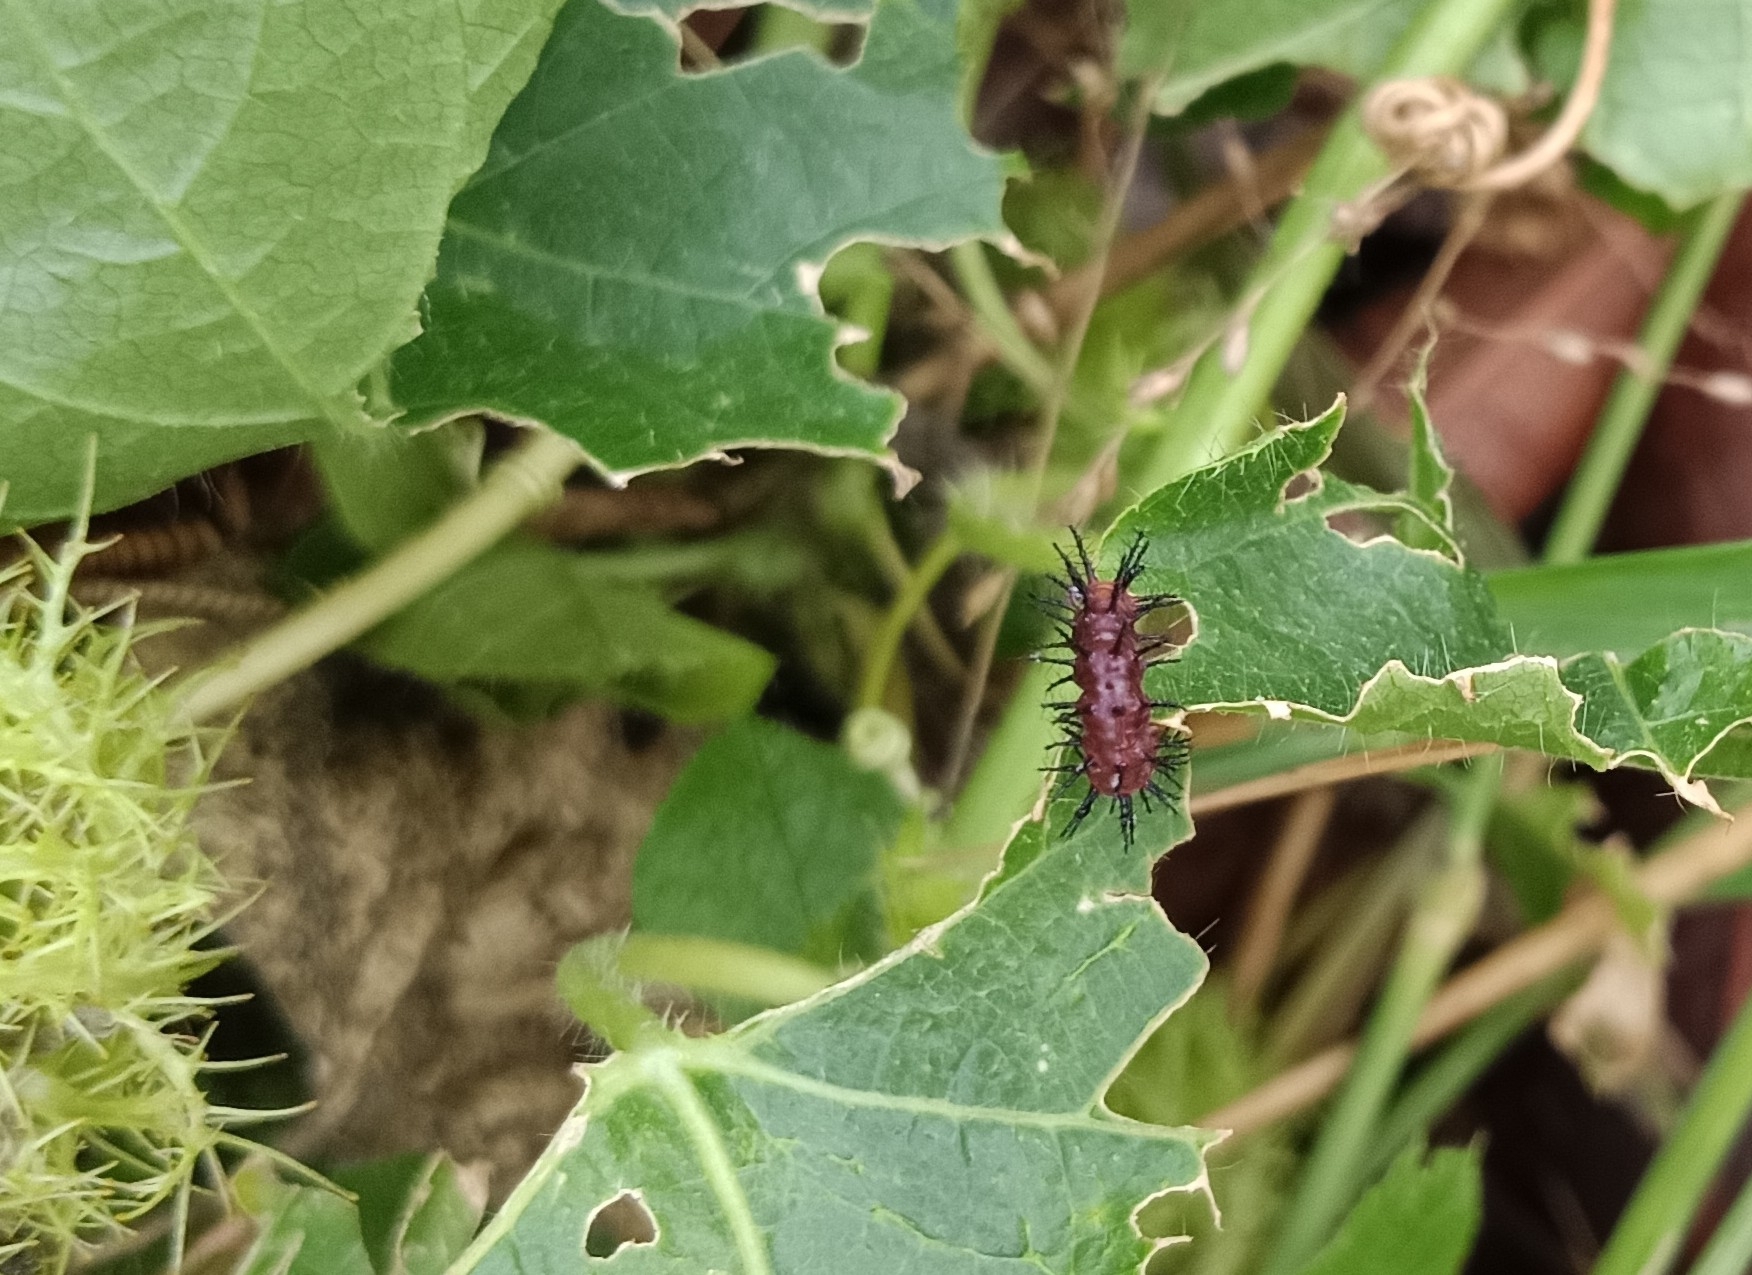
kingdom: Animalia
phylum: Arthropoda
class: Insecta
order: Lepidoptera
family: Nymphalidae
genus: Acraea
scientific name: Acraea terpsicore
